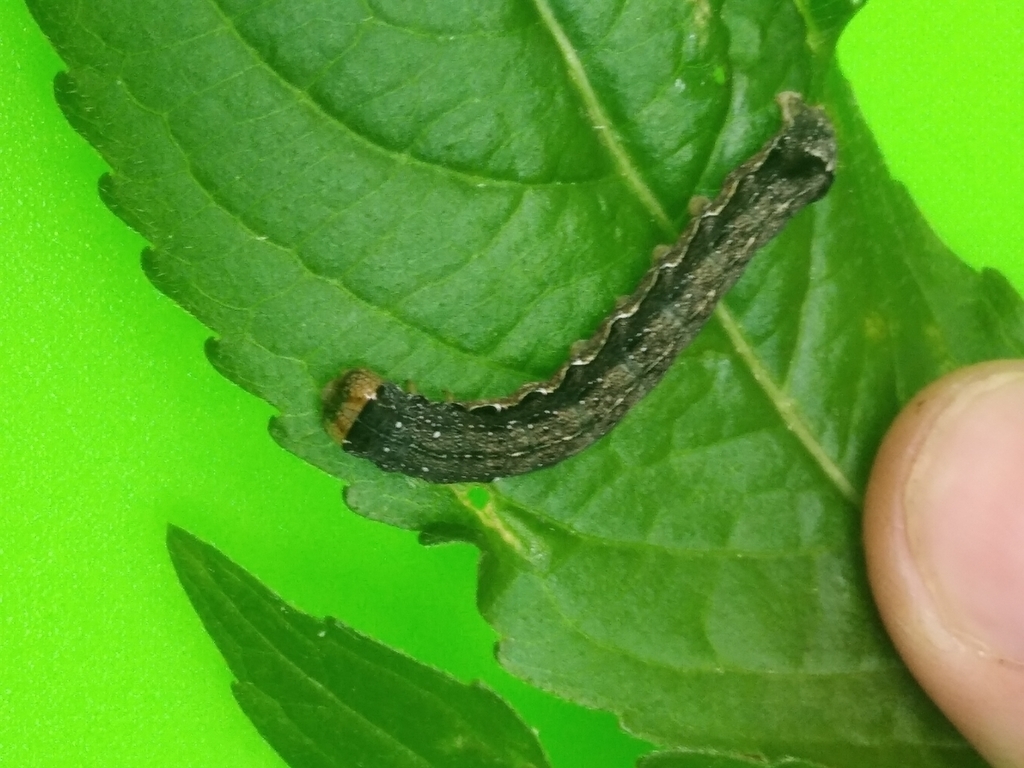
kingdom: Animalia
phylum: Arthropoda
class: Insecta
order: Lepidoptera
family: Noctuidae
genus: Anorthoa
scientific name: Anorthoa munda
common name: Twin-spotted quaker
